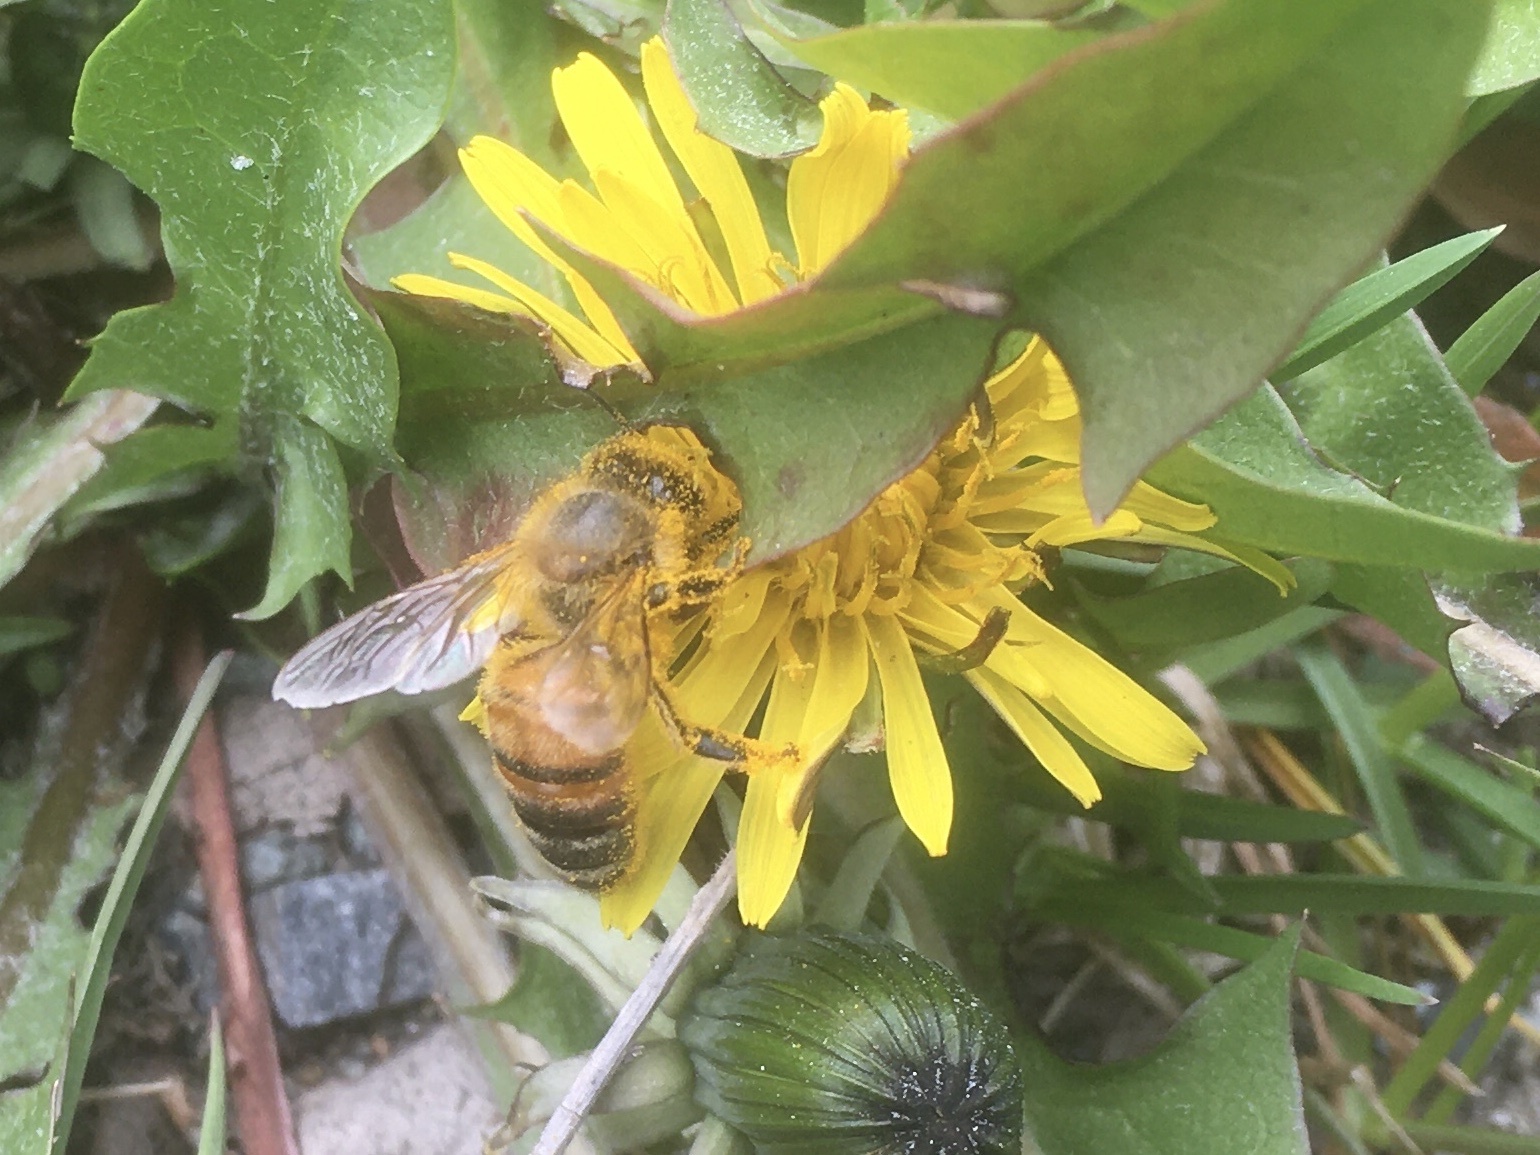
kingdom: Animalia
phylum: Arthropoda
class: Insecta
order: Hymenoptera
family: Apidae
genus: Apis
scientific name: Apis mellifera
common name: Honey bee
